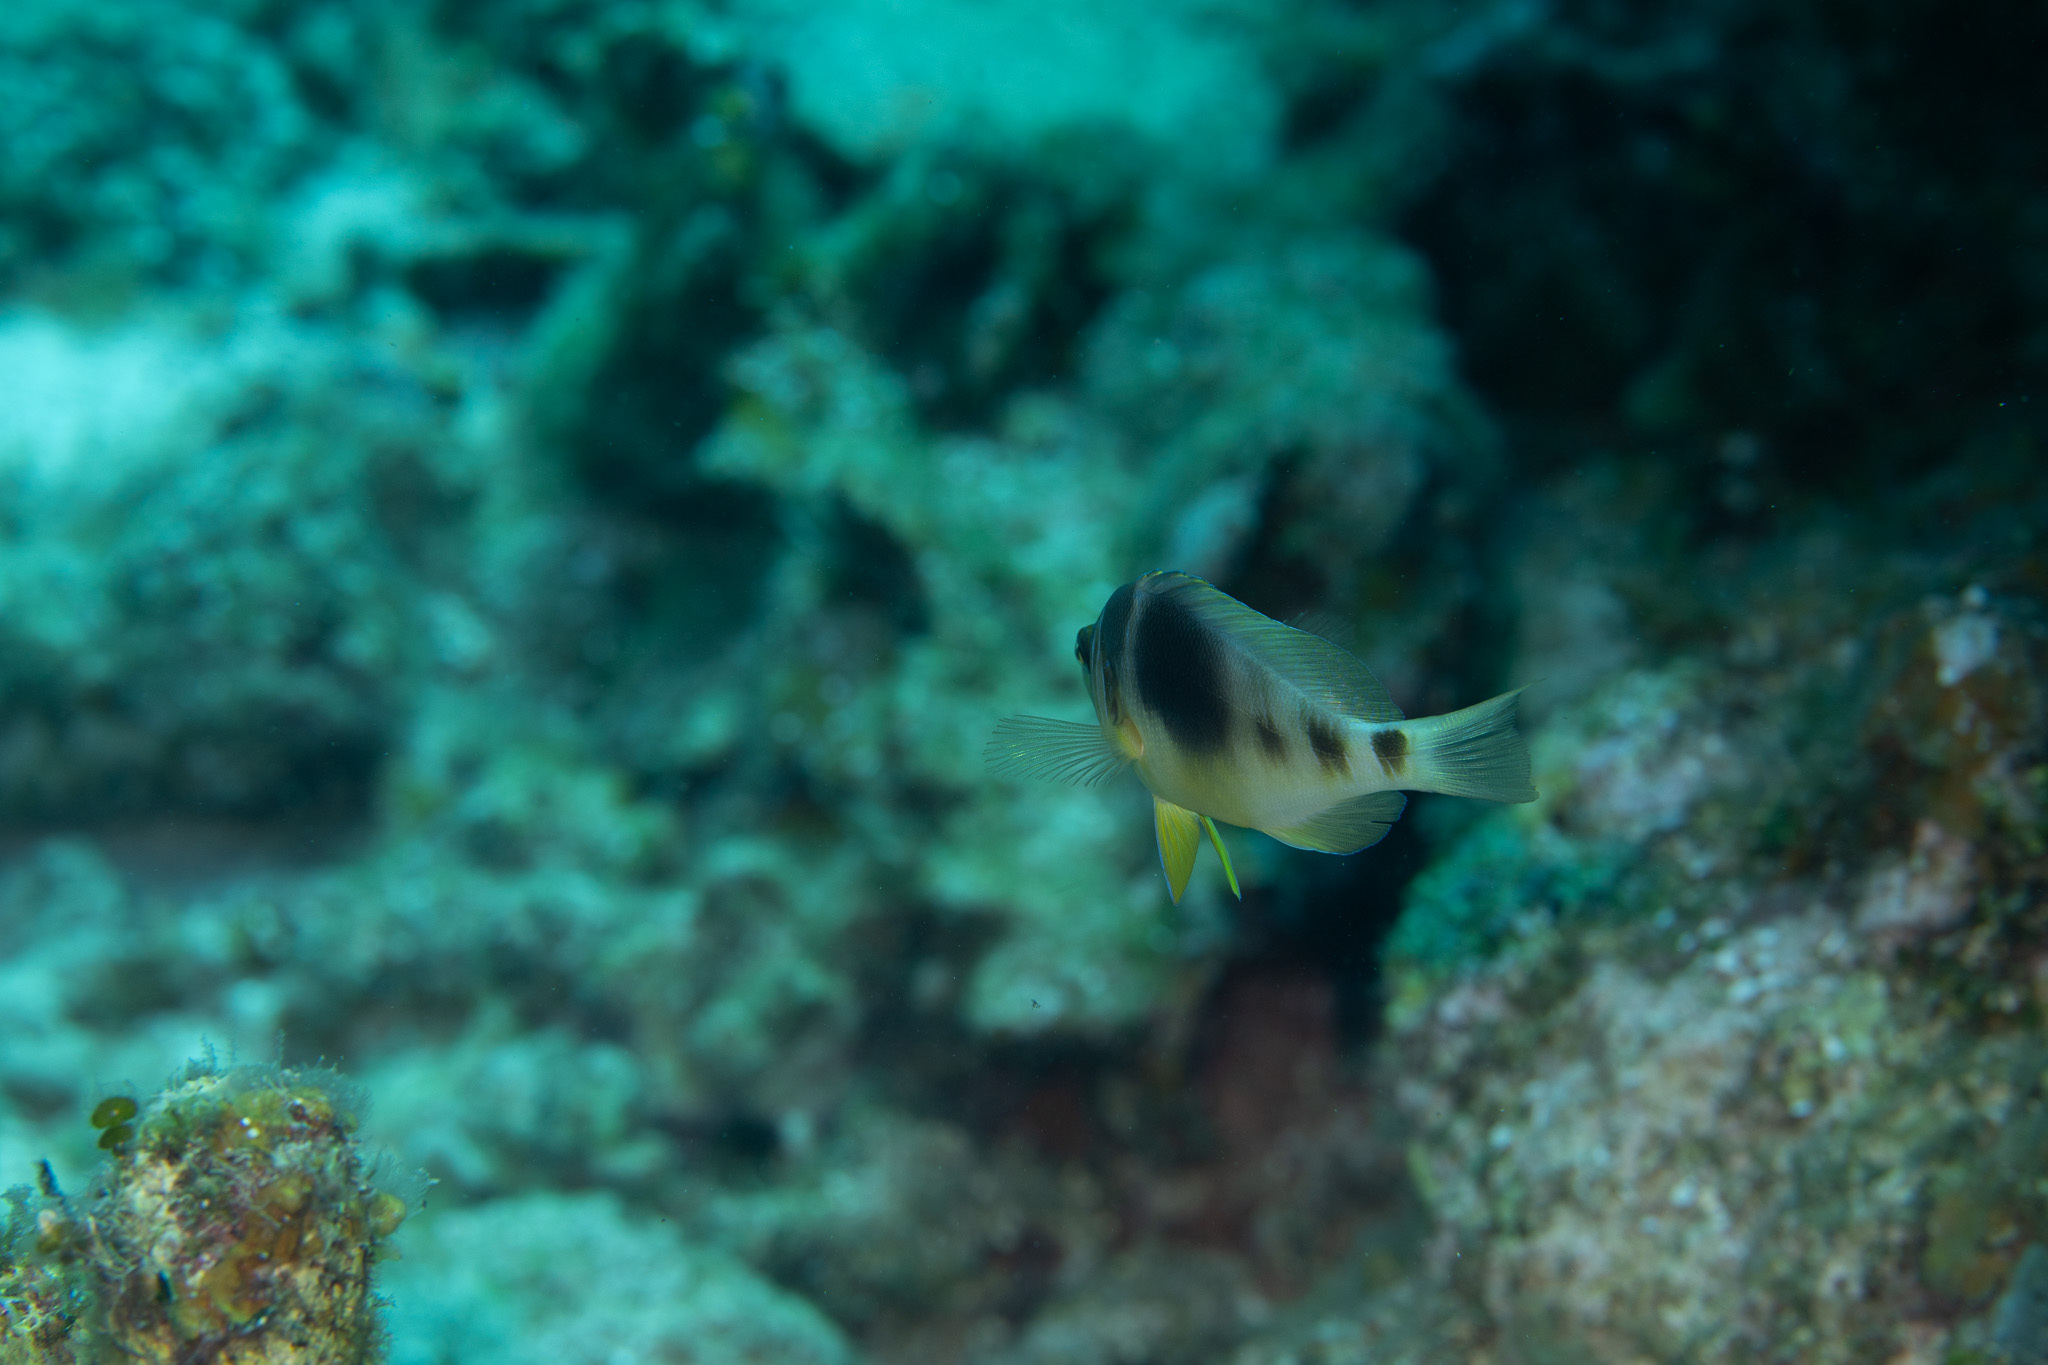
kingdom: Animalia
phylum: Chordata
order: Perciformes
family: Serranidae
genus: Hypoplectrus
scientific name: Hypoplectrus puella
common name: Barred hamlet
